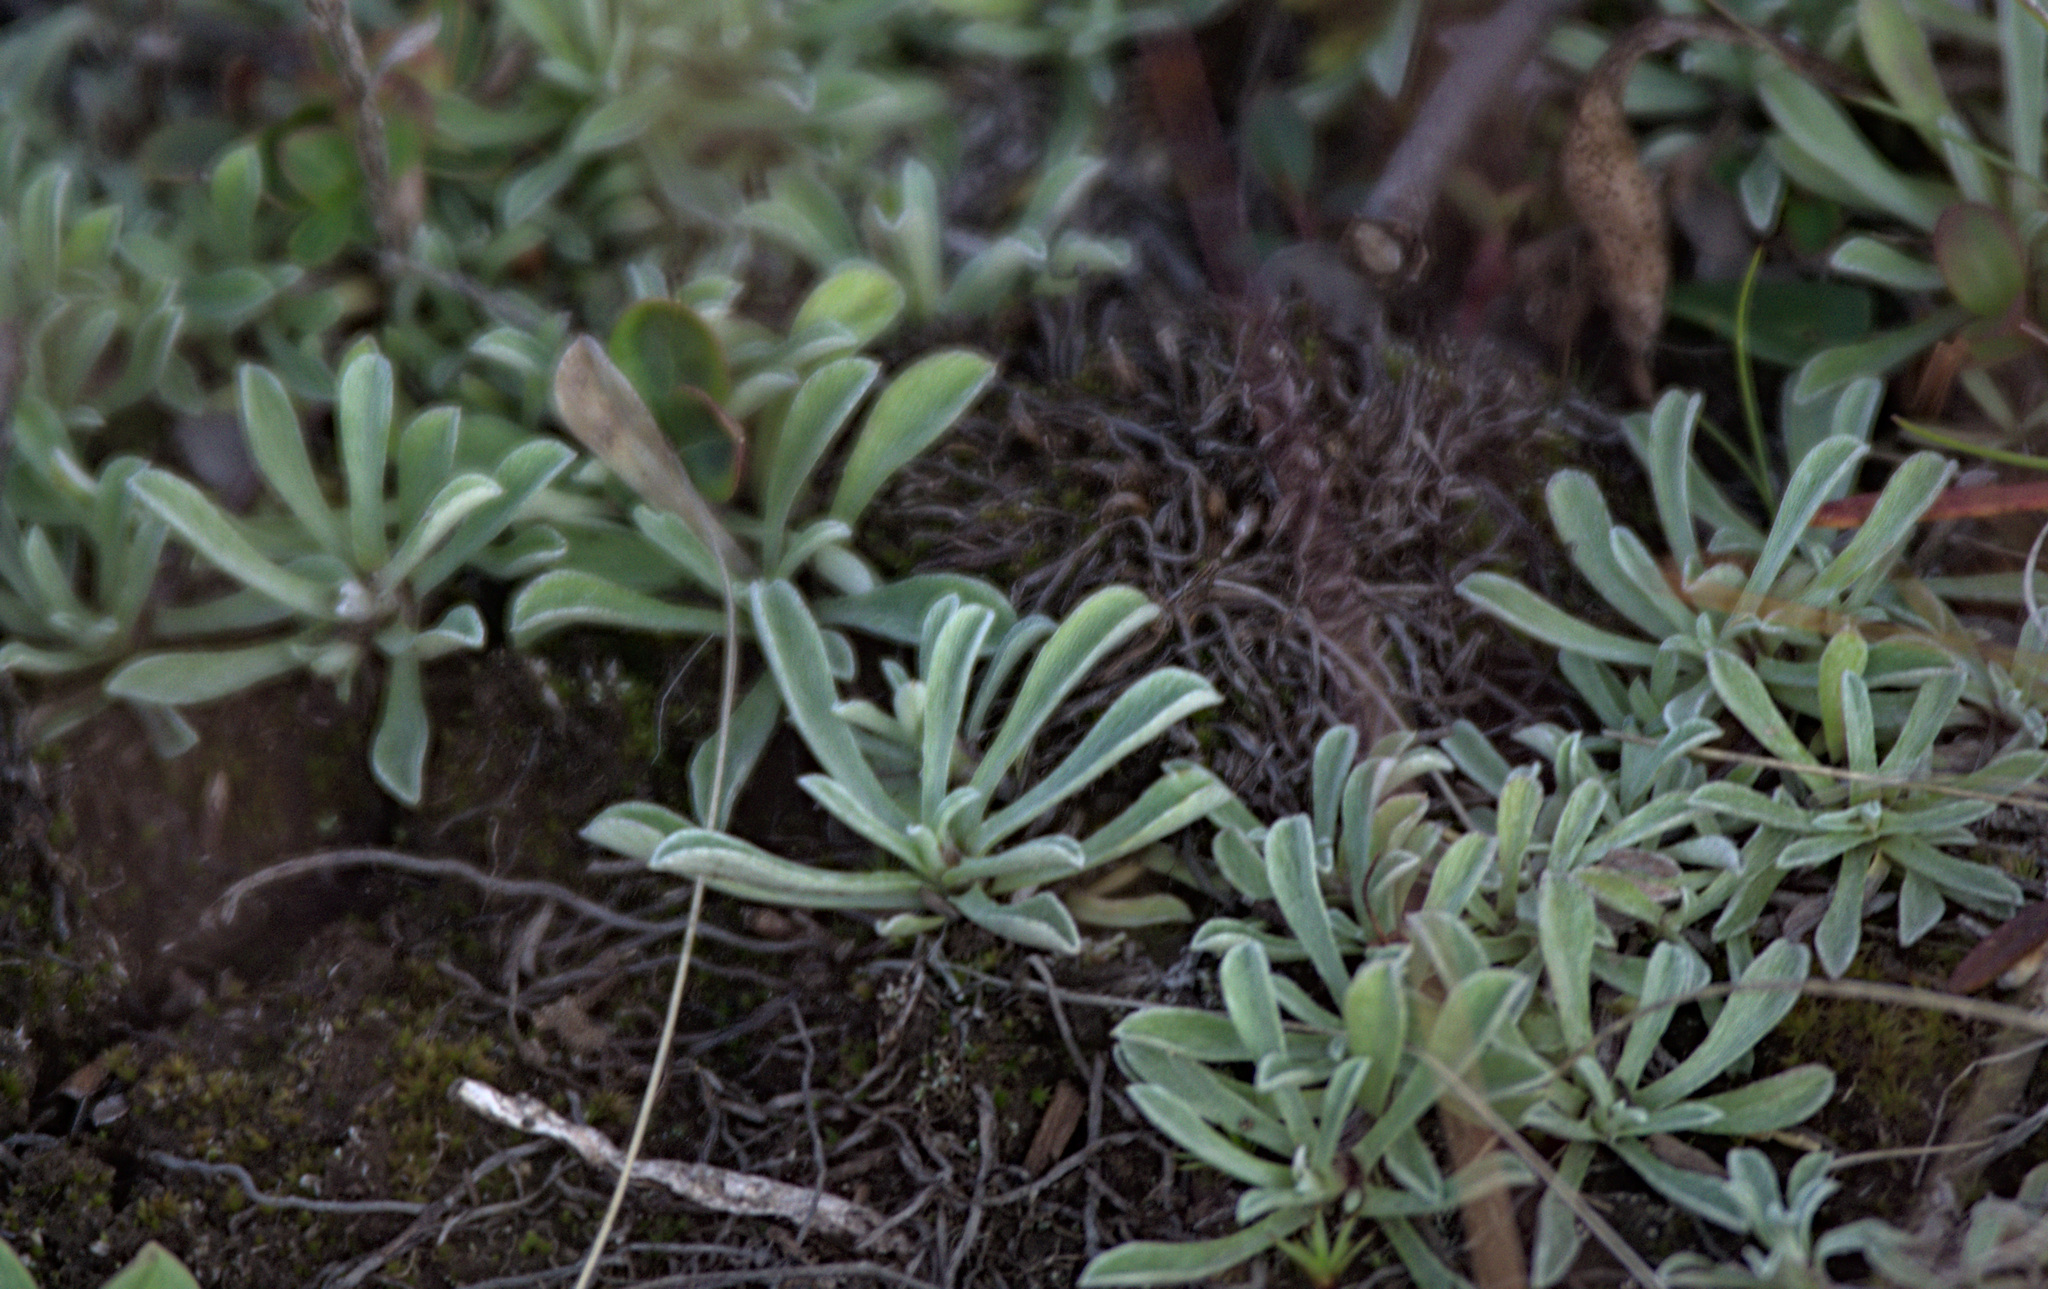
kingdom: Plantae
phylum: Tracheophyta
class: Magnoliopsida
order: Asterales
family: Asteraceae
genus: Antennaria
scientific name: Antennaria dioica
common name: Mountain everlasting
